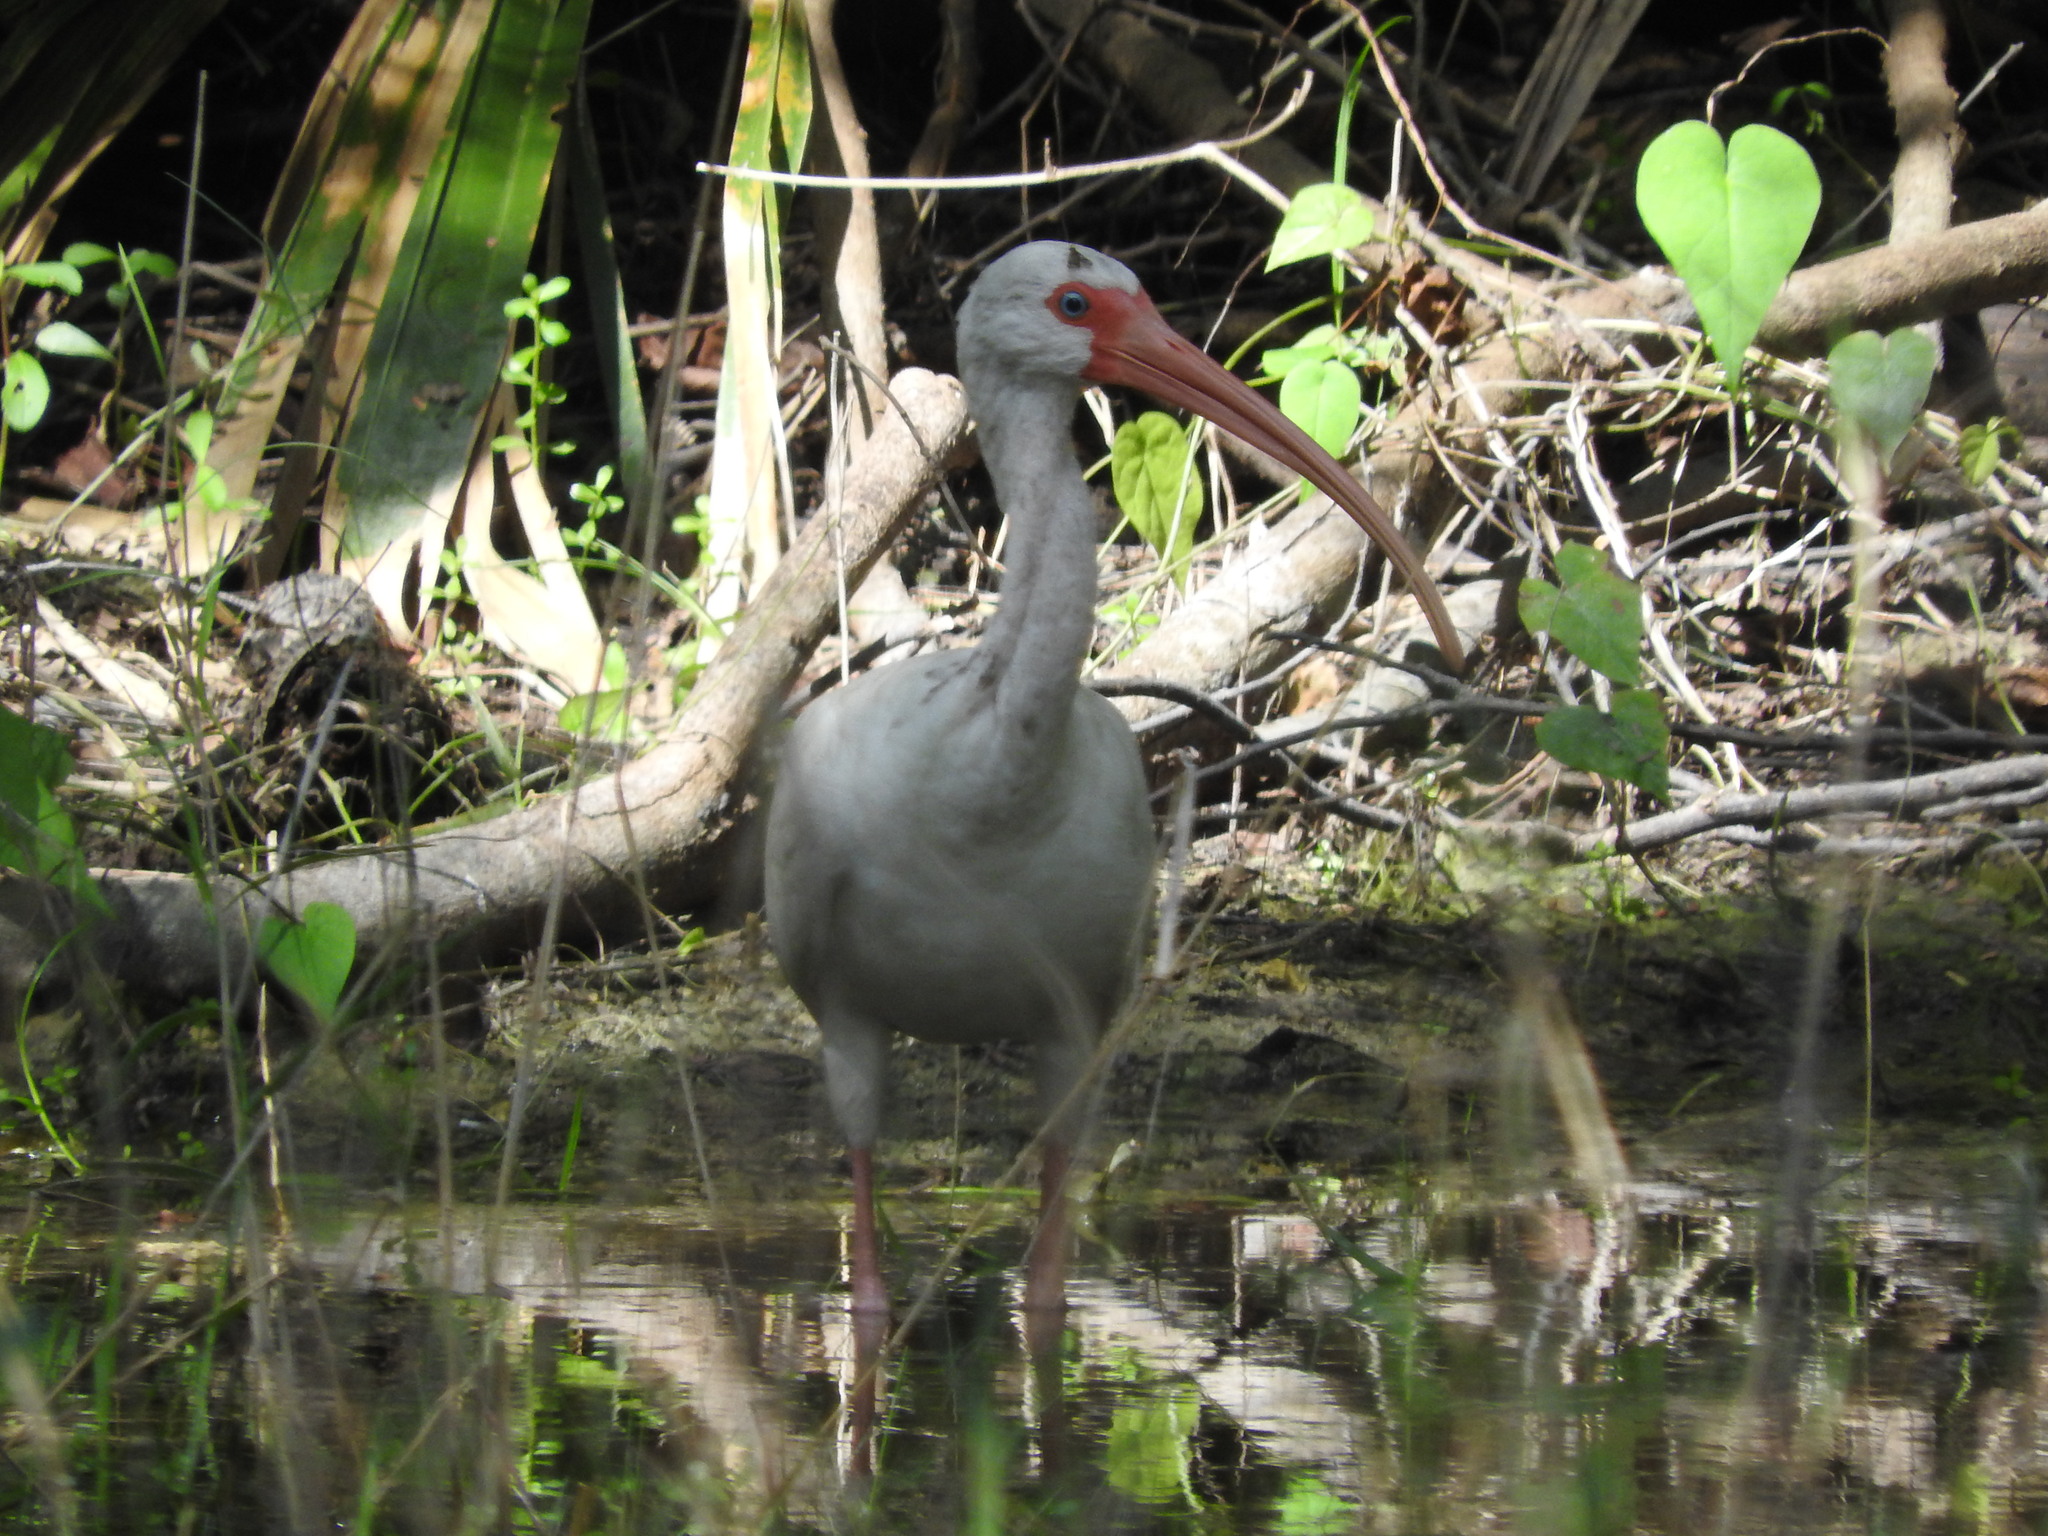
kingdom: Animalia
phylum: Chordata
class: Aves
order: Pelecaniformes
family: Threskiornithidae
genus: Eudocimus
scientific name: Eudocimus albus
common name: White ibis
